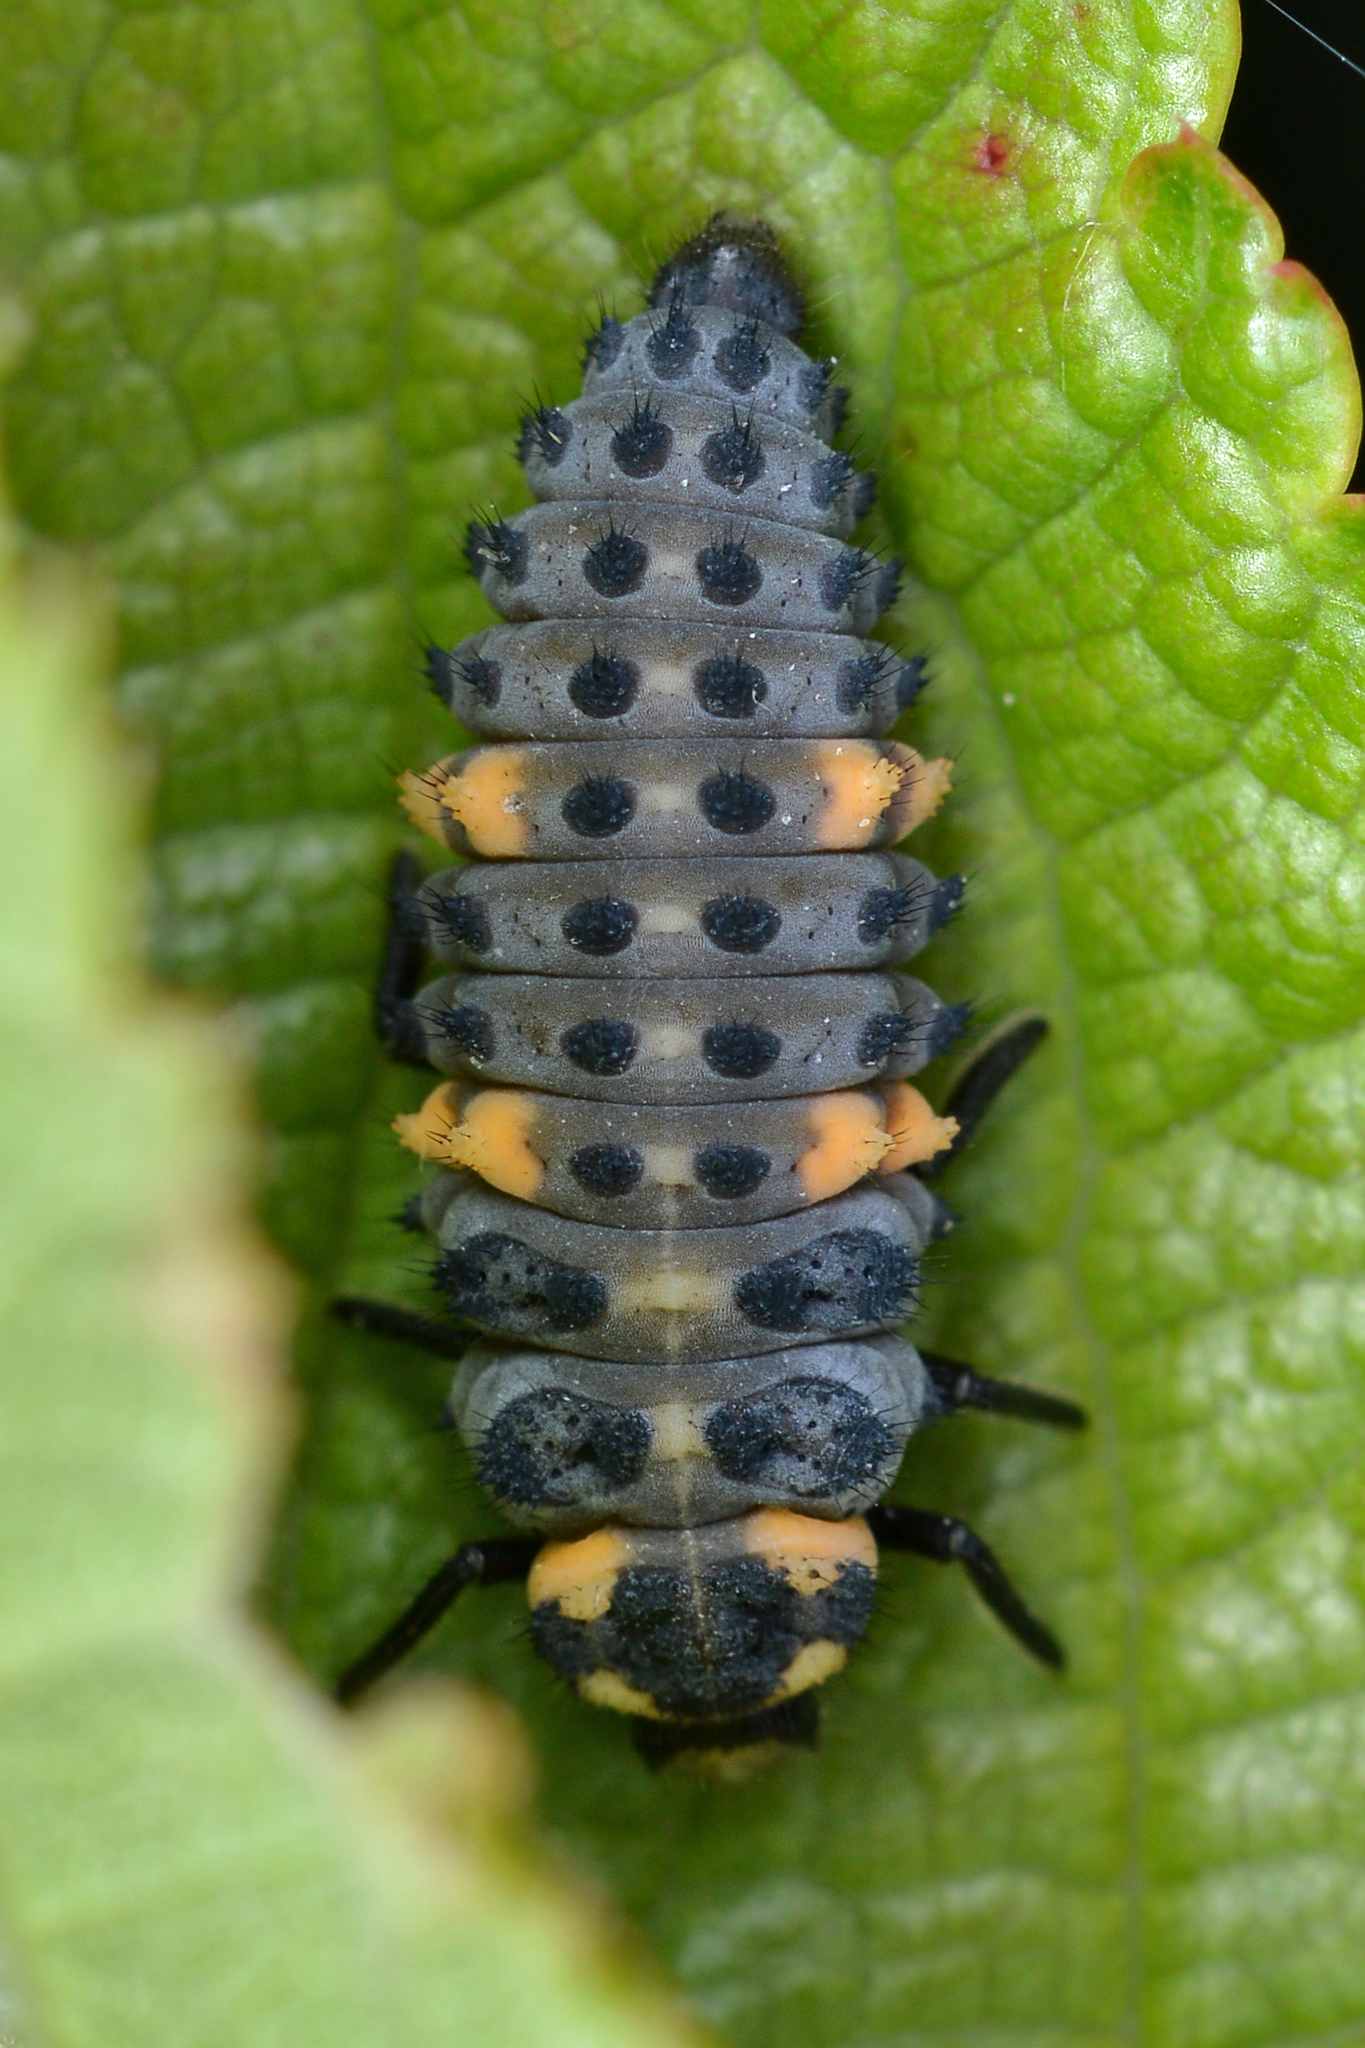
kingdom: Animalia
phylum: Arthropoda
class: Insecta
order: Coleoptera
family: Coccinellidae
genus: Coccinella
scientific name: Coccinella septempunctata
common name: Sevenspotted lady beetle
